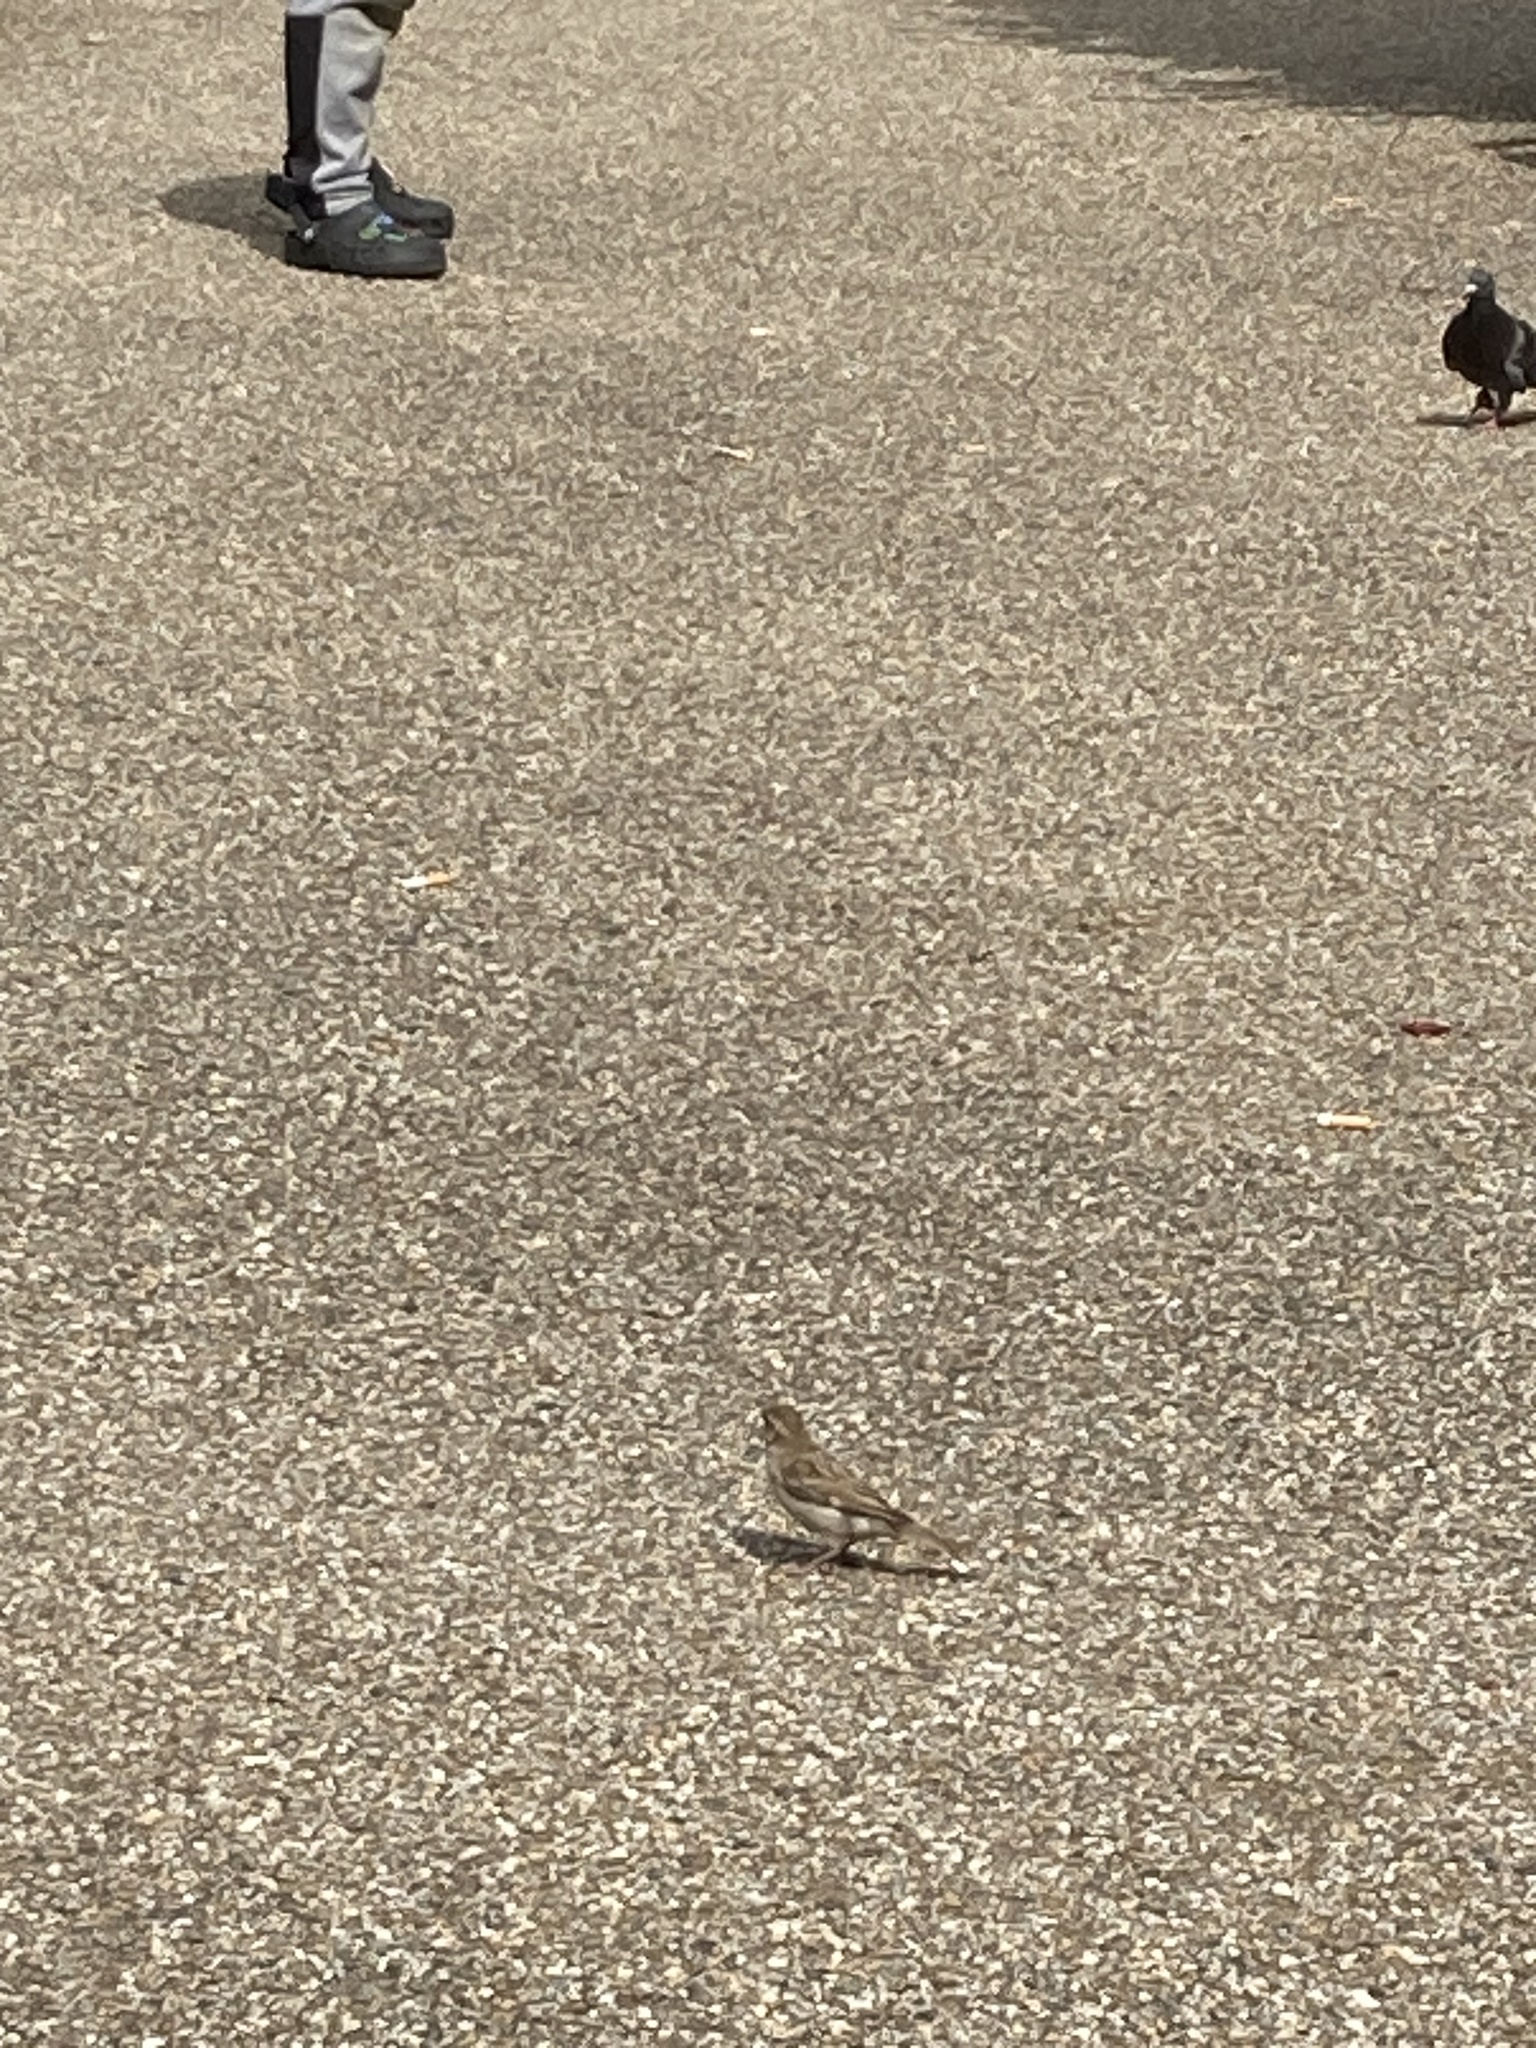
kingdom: Animalia
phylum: Chordata
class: Aves
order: Passeriformes
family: Passeridae
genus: Passer
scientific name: Passer domesticus
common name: House sparrow
